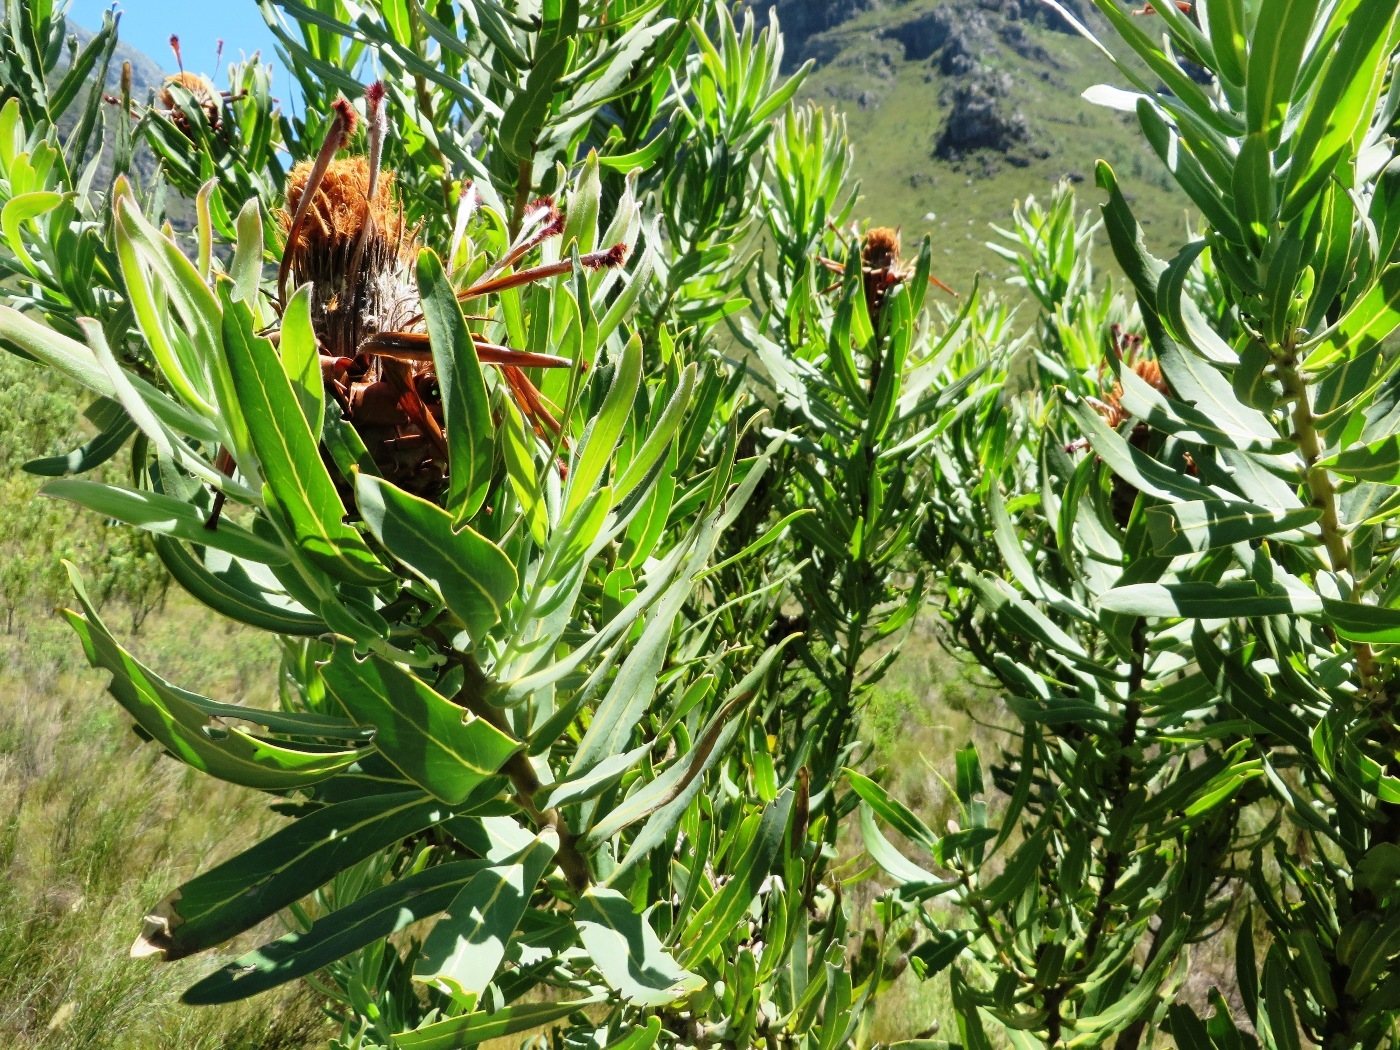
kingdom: Plantae
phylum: Tracheophyta
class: Magnoliopsida
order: Proteales
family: Proteaceae
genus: Protea
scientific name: Protea laurifolia
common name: Grey-leaf sugarbsh
